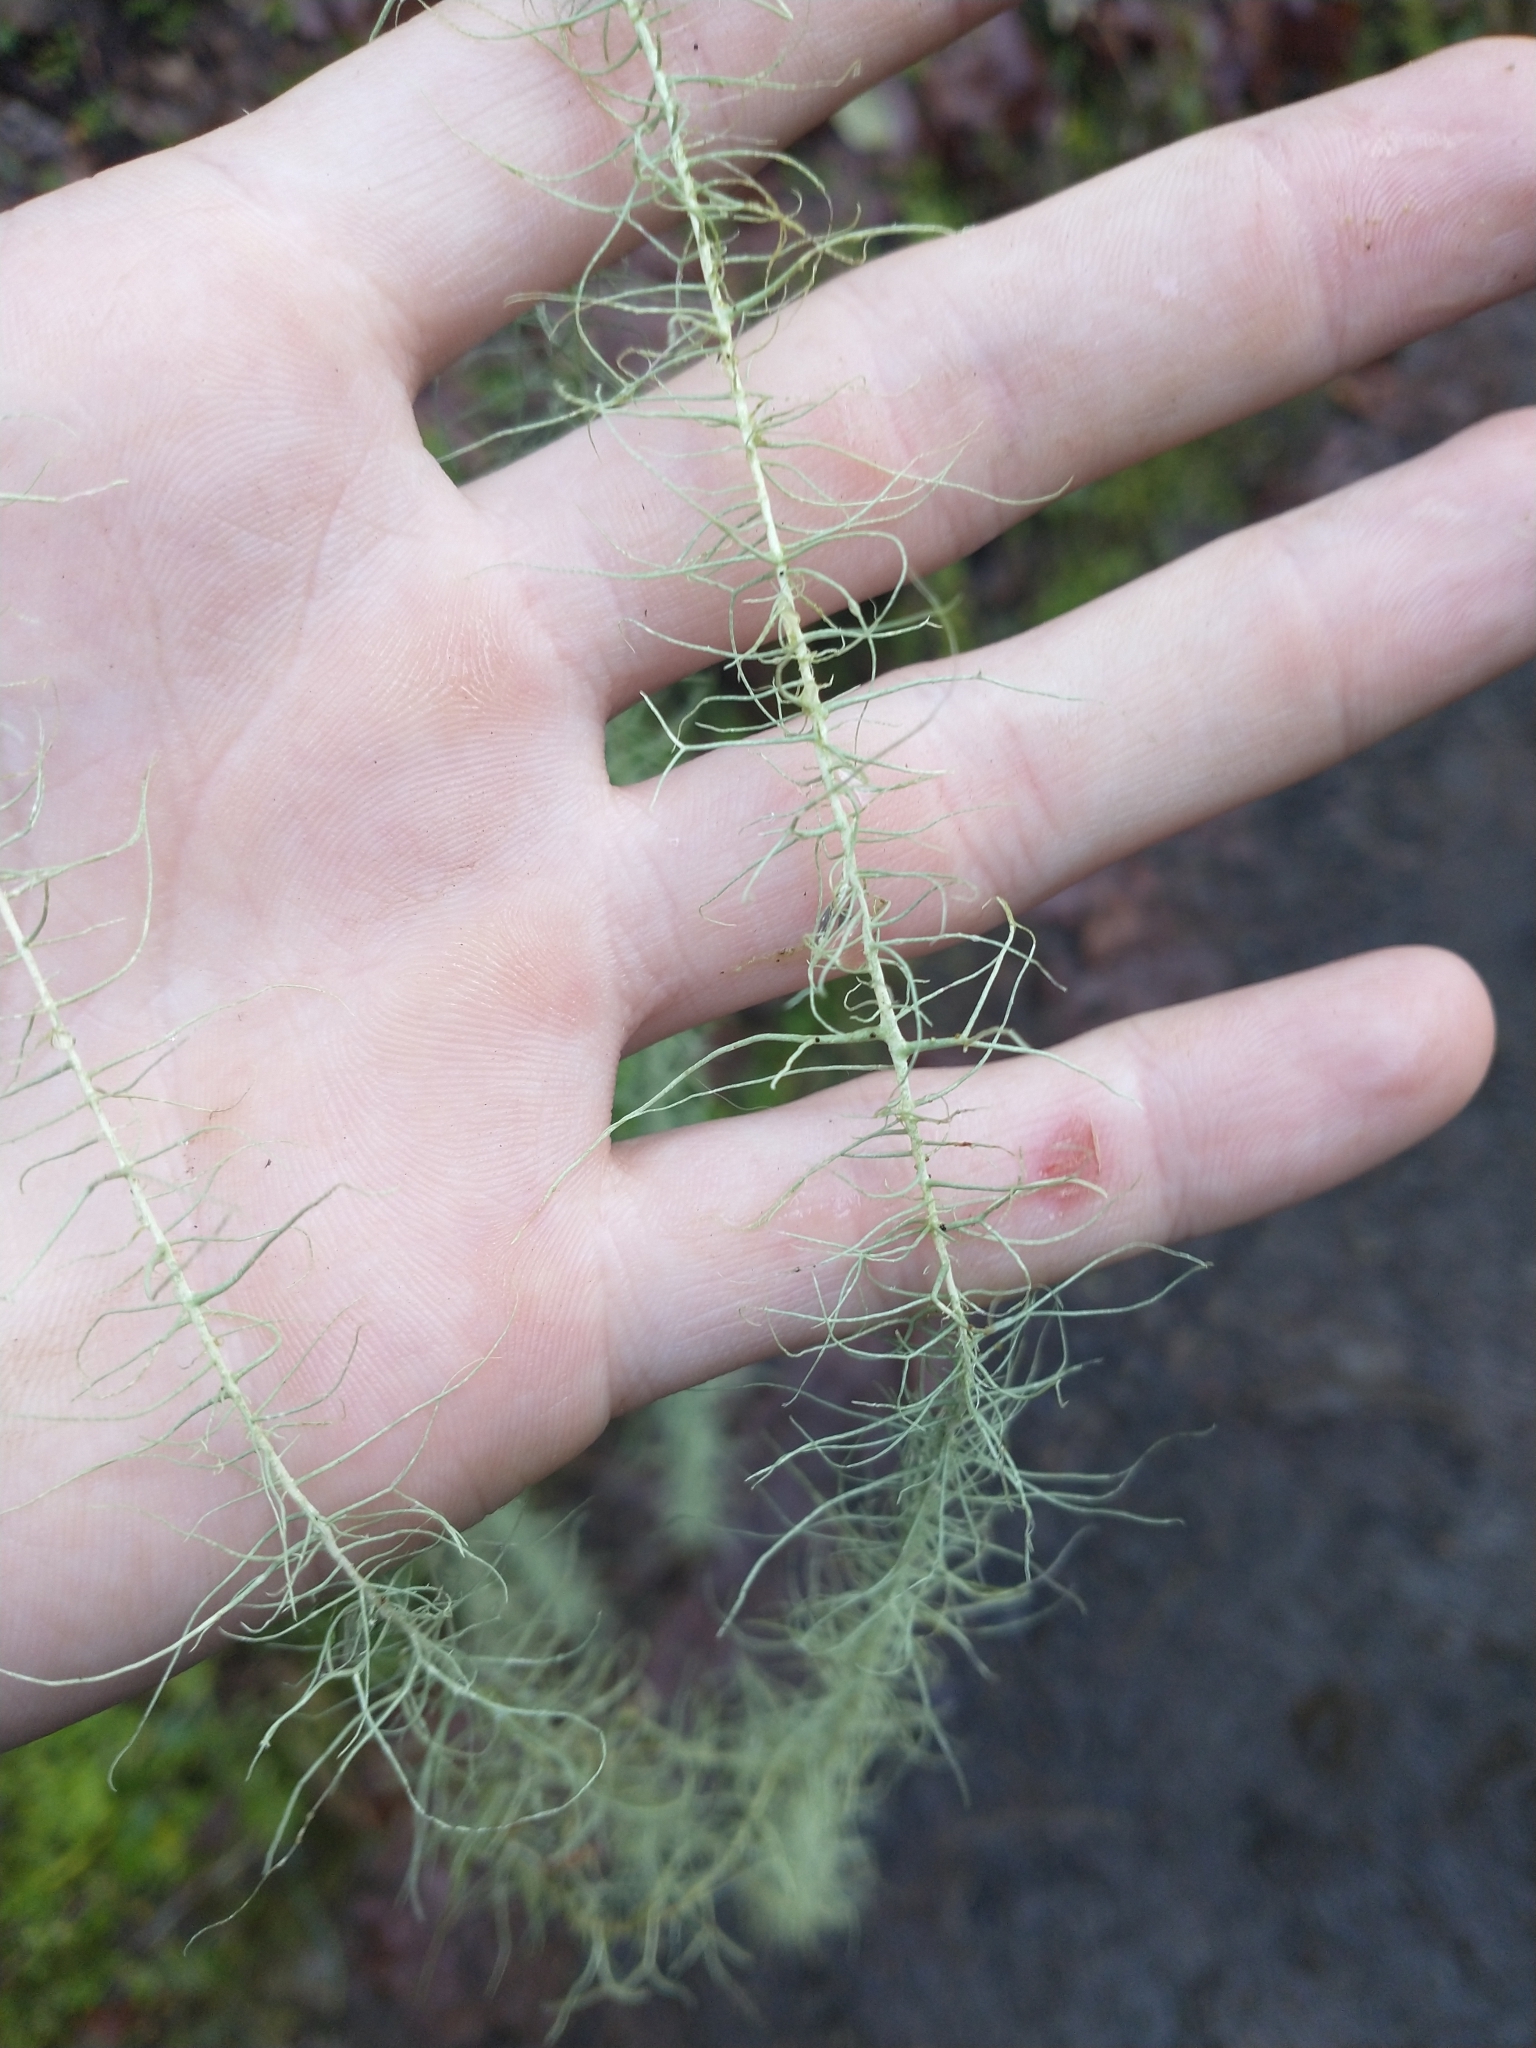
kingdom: Fungi
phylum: Ascomycota
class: Lecanoromycetes
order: Lecanorales
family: Parmeliaceae
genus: Dolichousnea
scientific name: Dolichousnea longissima
